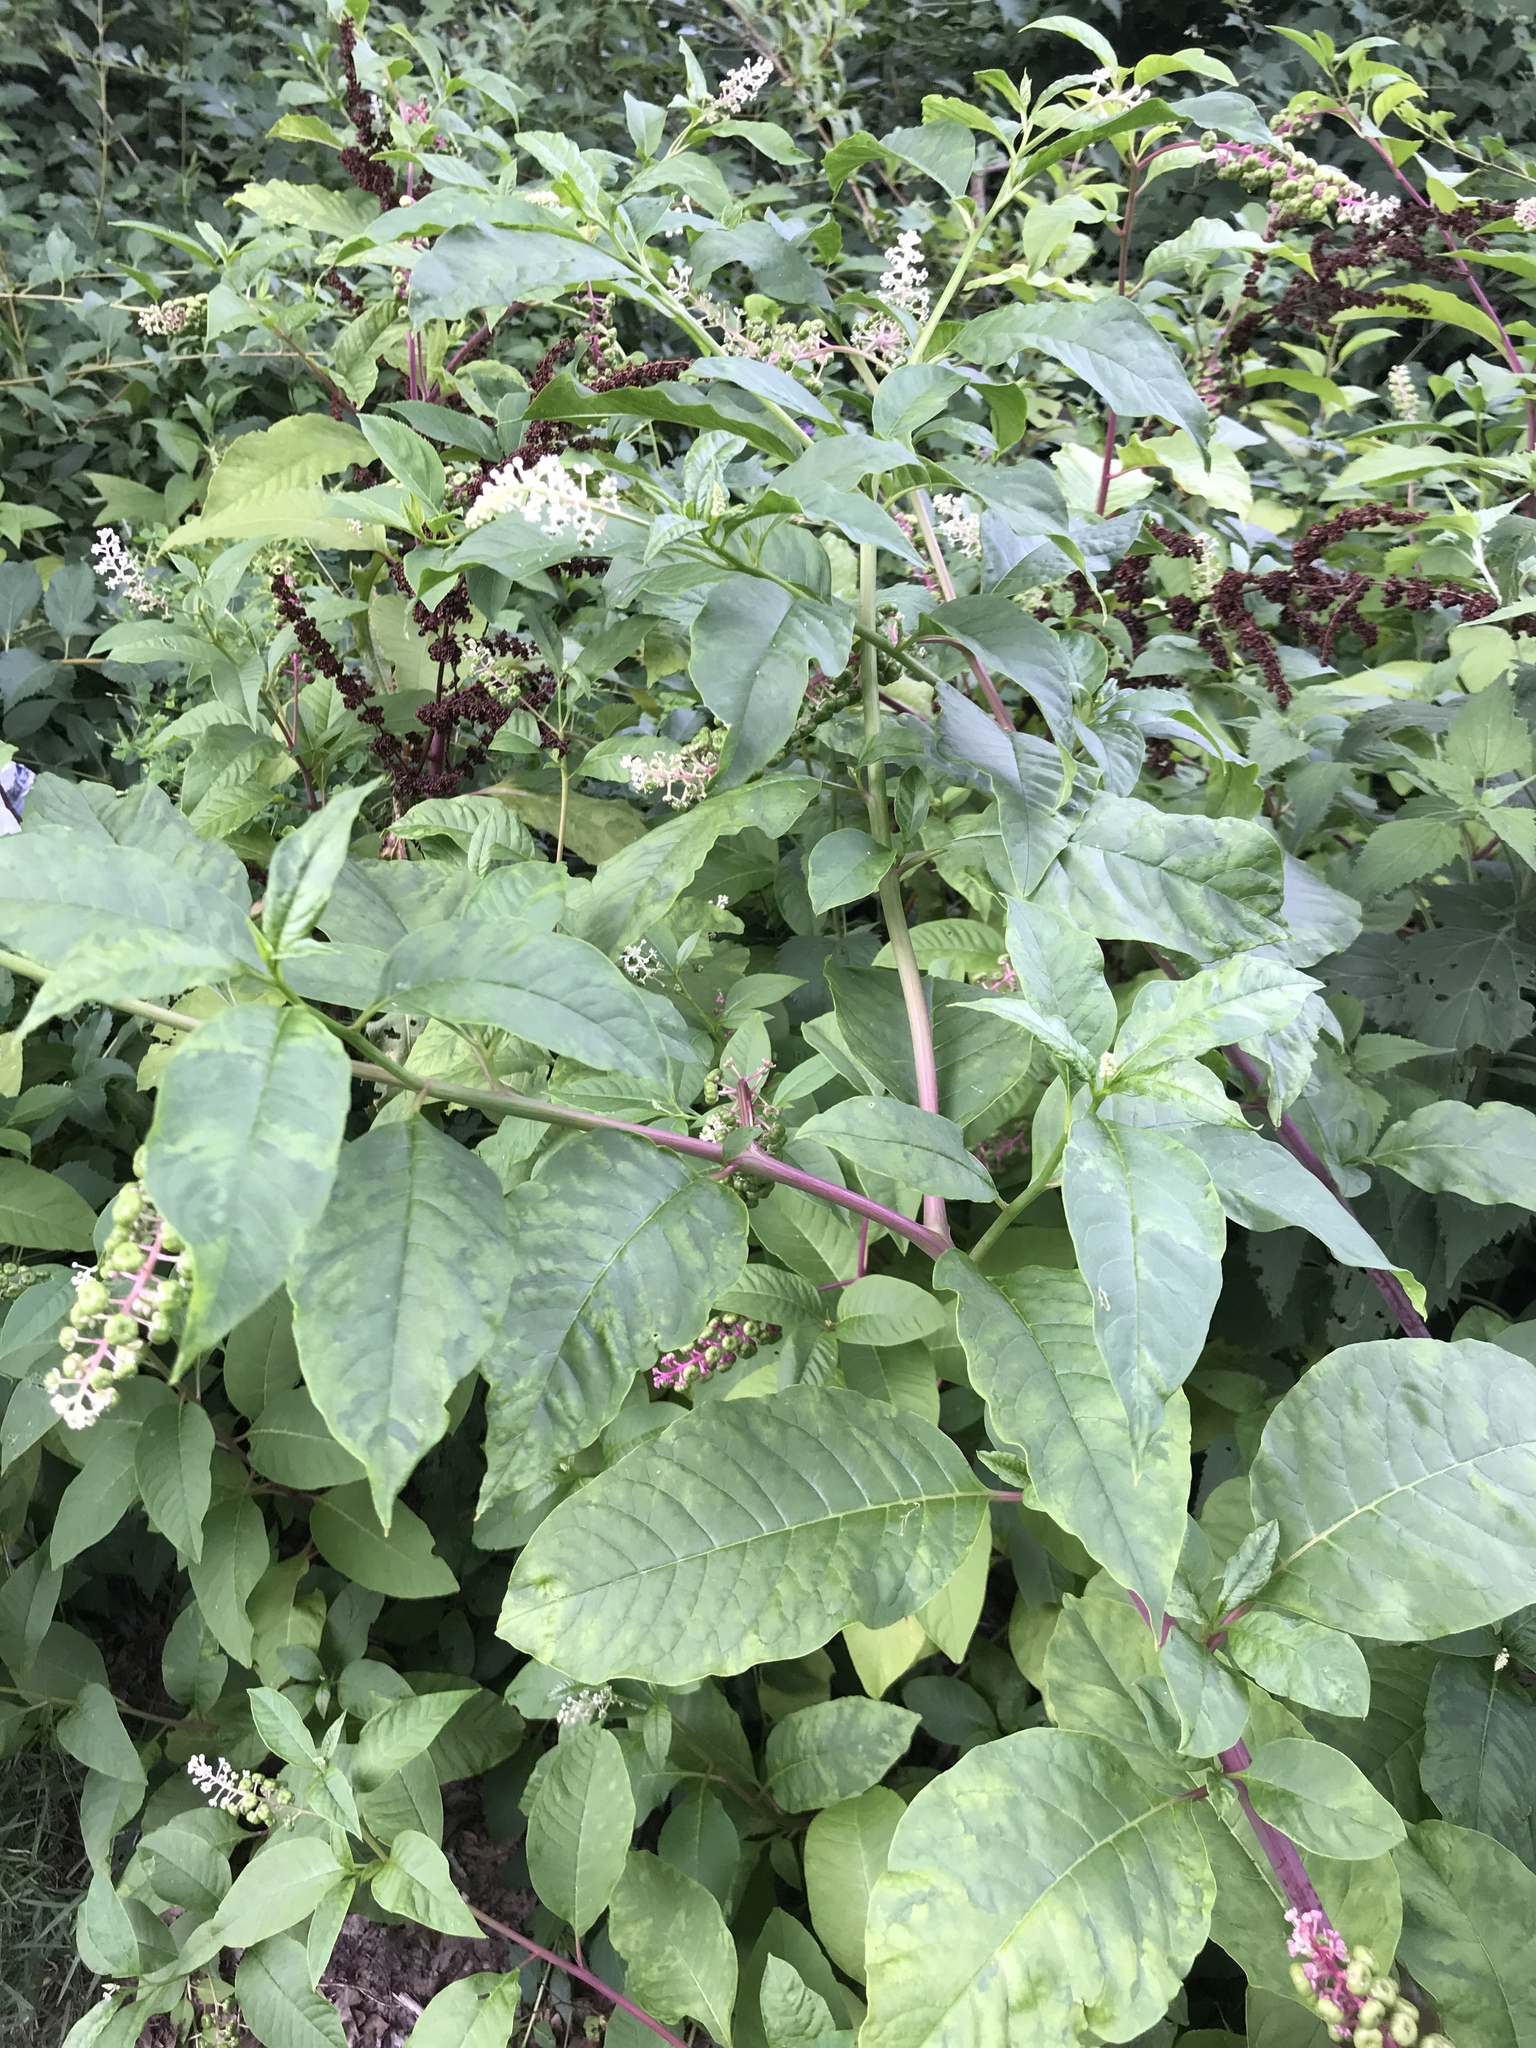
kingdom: Plantae
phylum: Tracheophyta
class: Magnoliopsida
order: Caryophyllales
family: Phytolaccaceae
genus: Phytolacca
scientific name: Phytolacca americana
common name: American pokeweed
